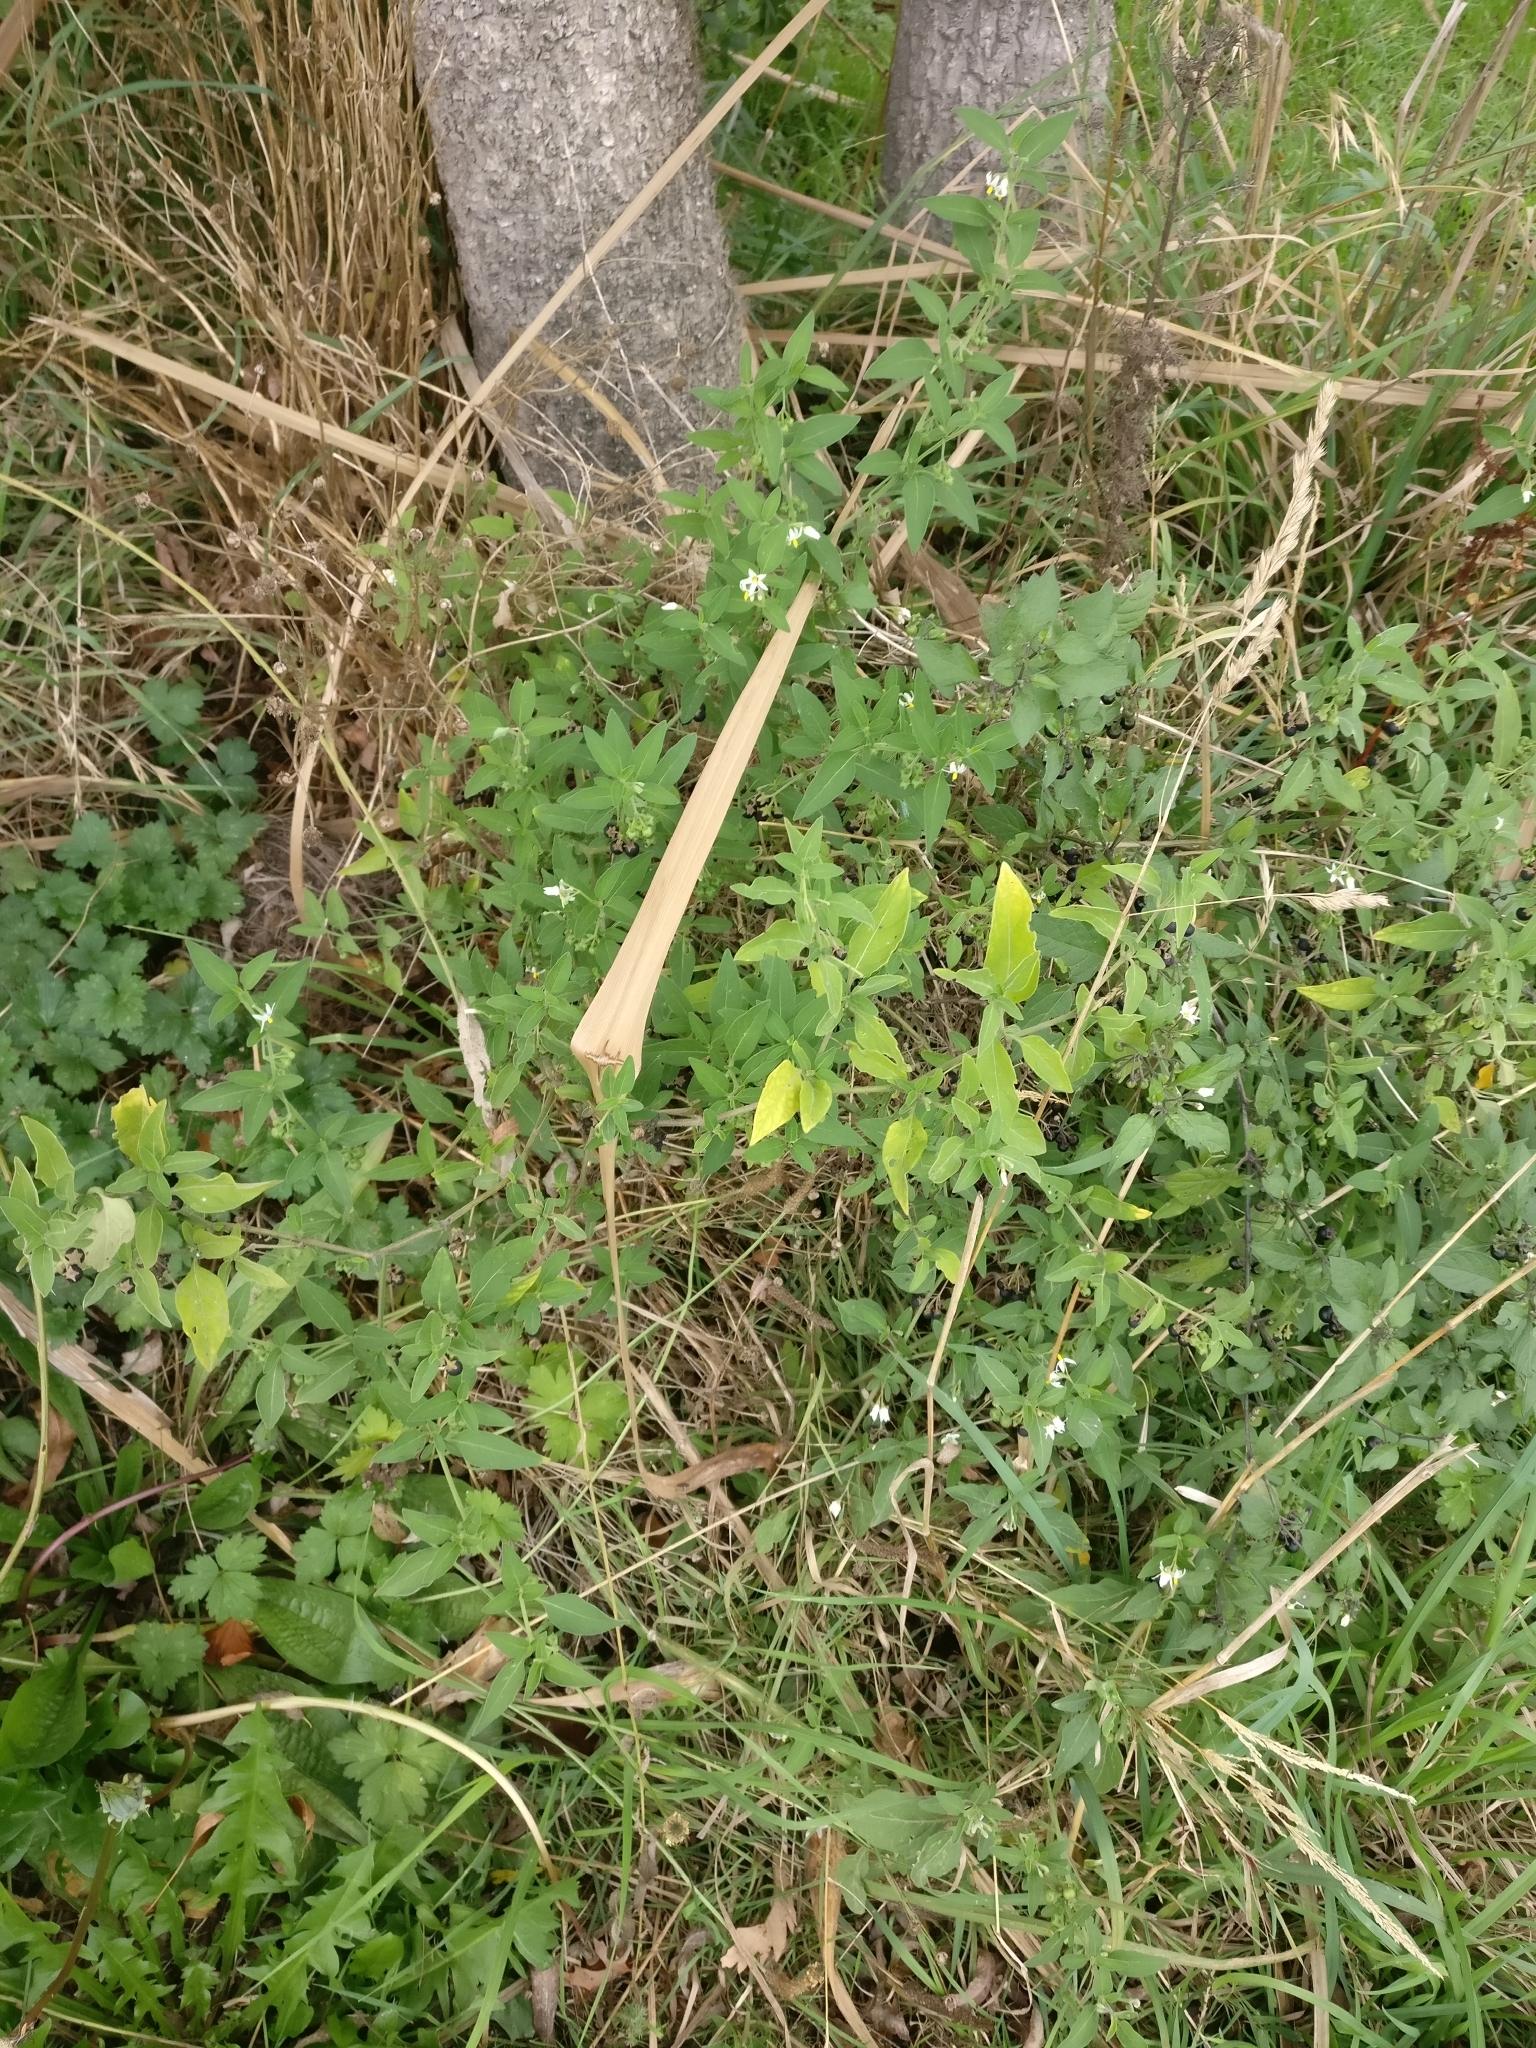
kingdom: Plantae
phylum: Tracheophyta
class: Magnoliopsida
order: Solanales
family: Solanaceae
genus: Solanum
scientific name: Solanum chenopodioides
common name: Tall nightshade
